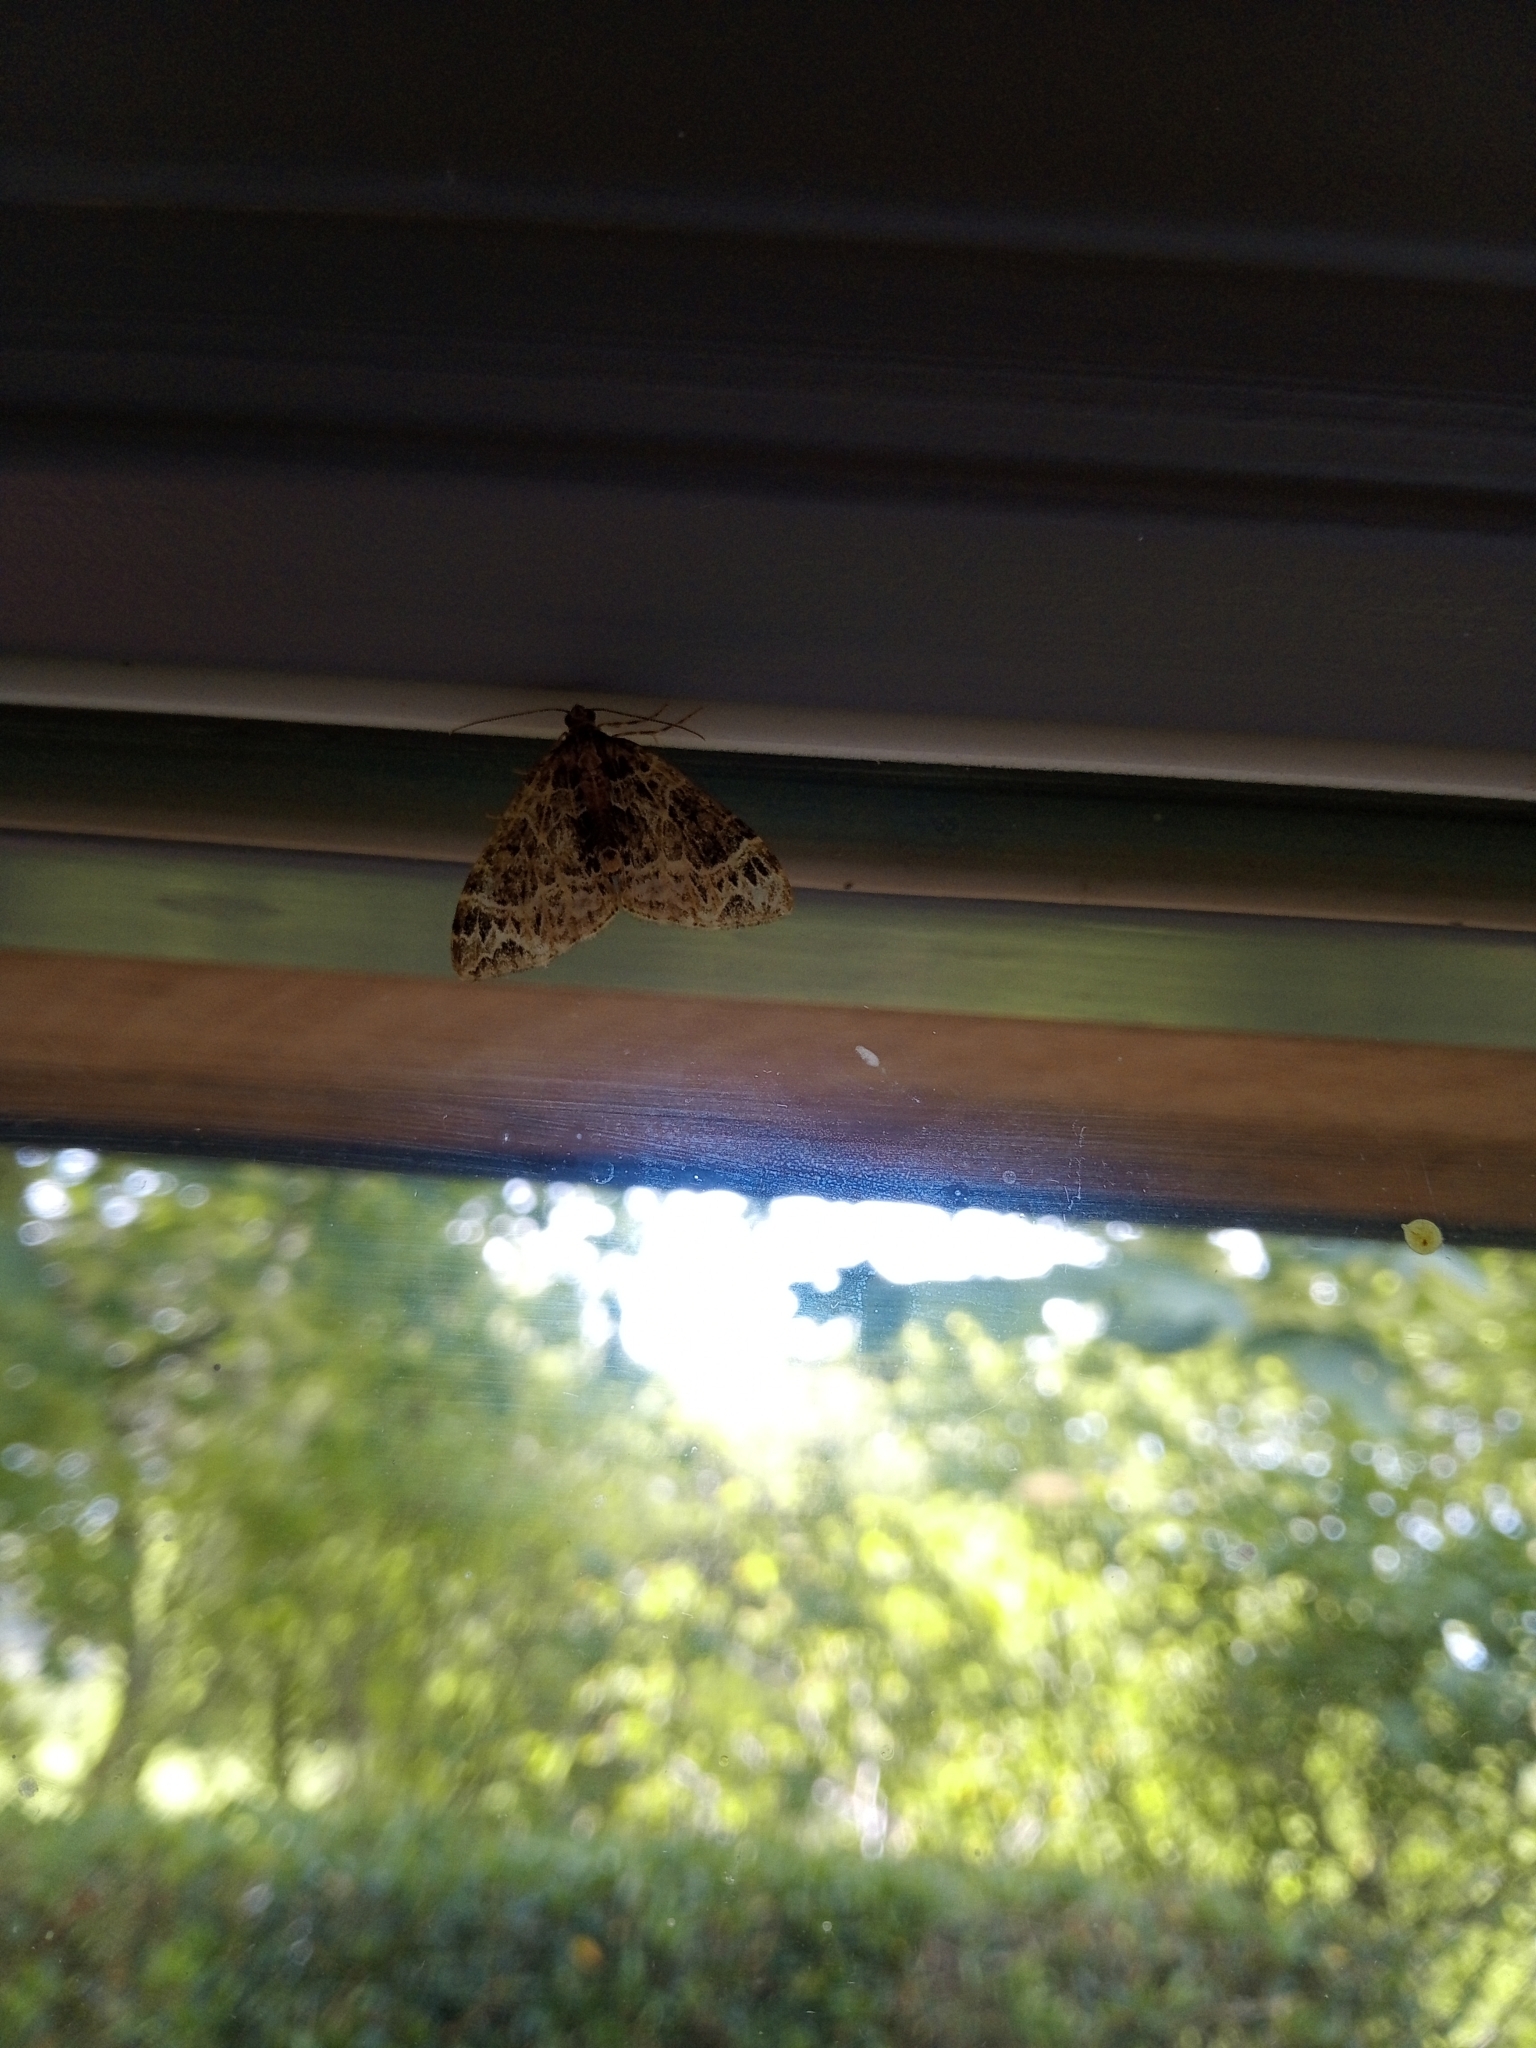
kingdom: Animalia
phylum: Arthropoda
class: Insecta
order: Lepidoptera
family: Geometridae
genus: Ecliptopera
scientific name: Ecliptopera silaceata
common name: Small phoenix
